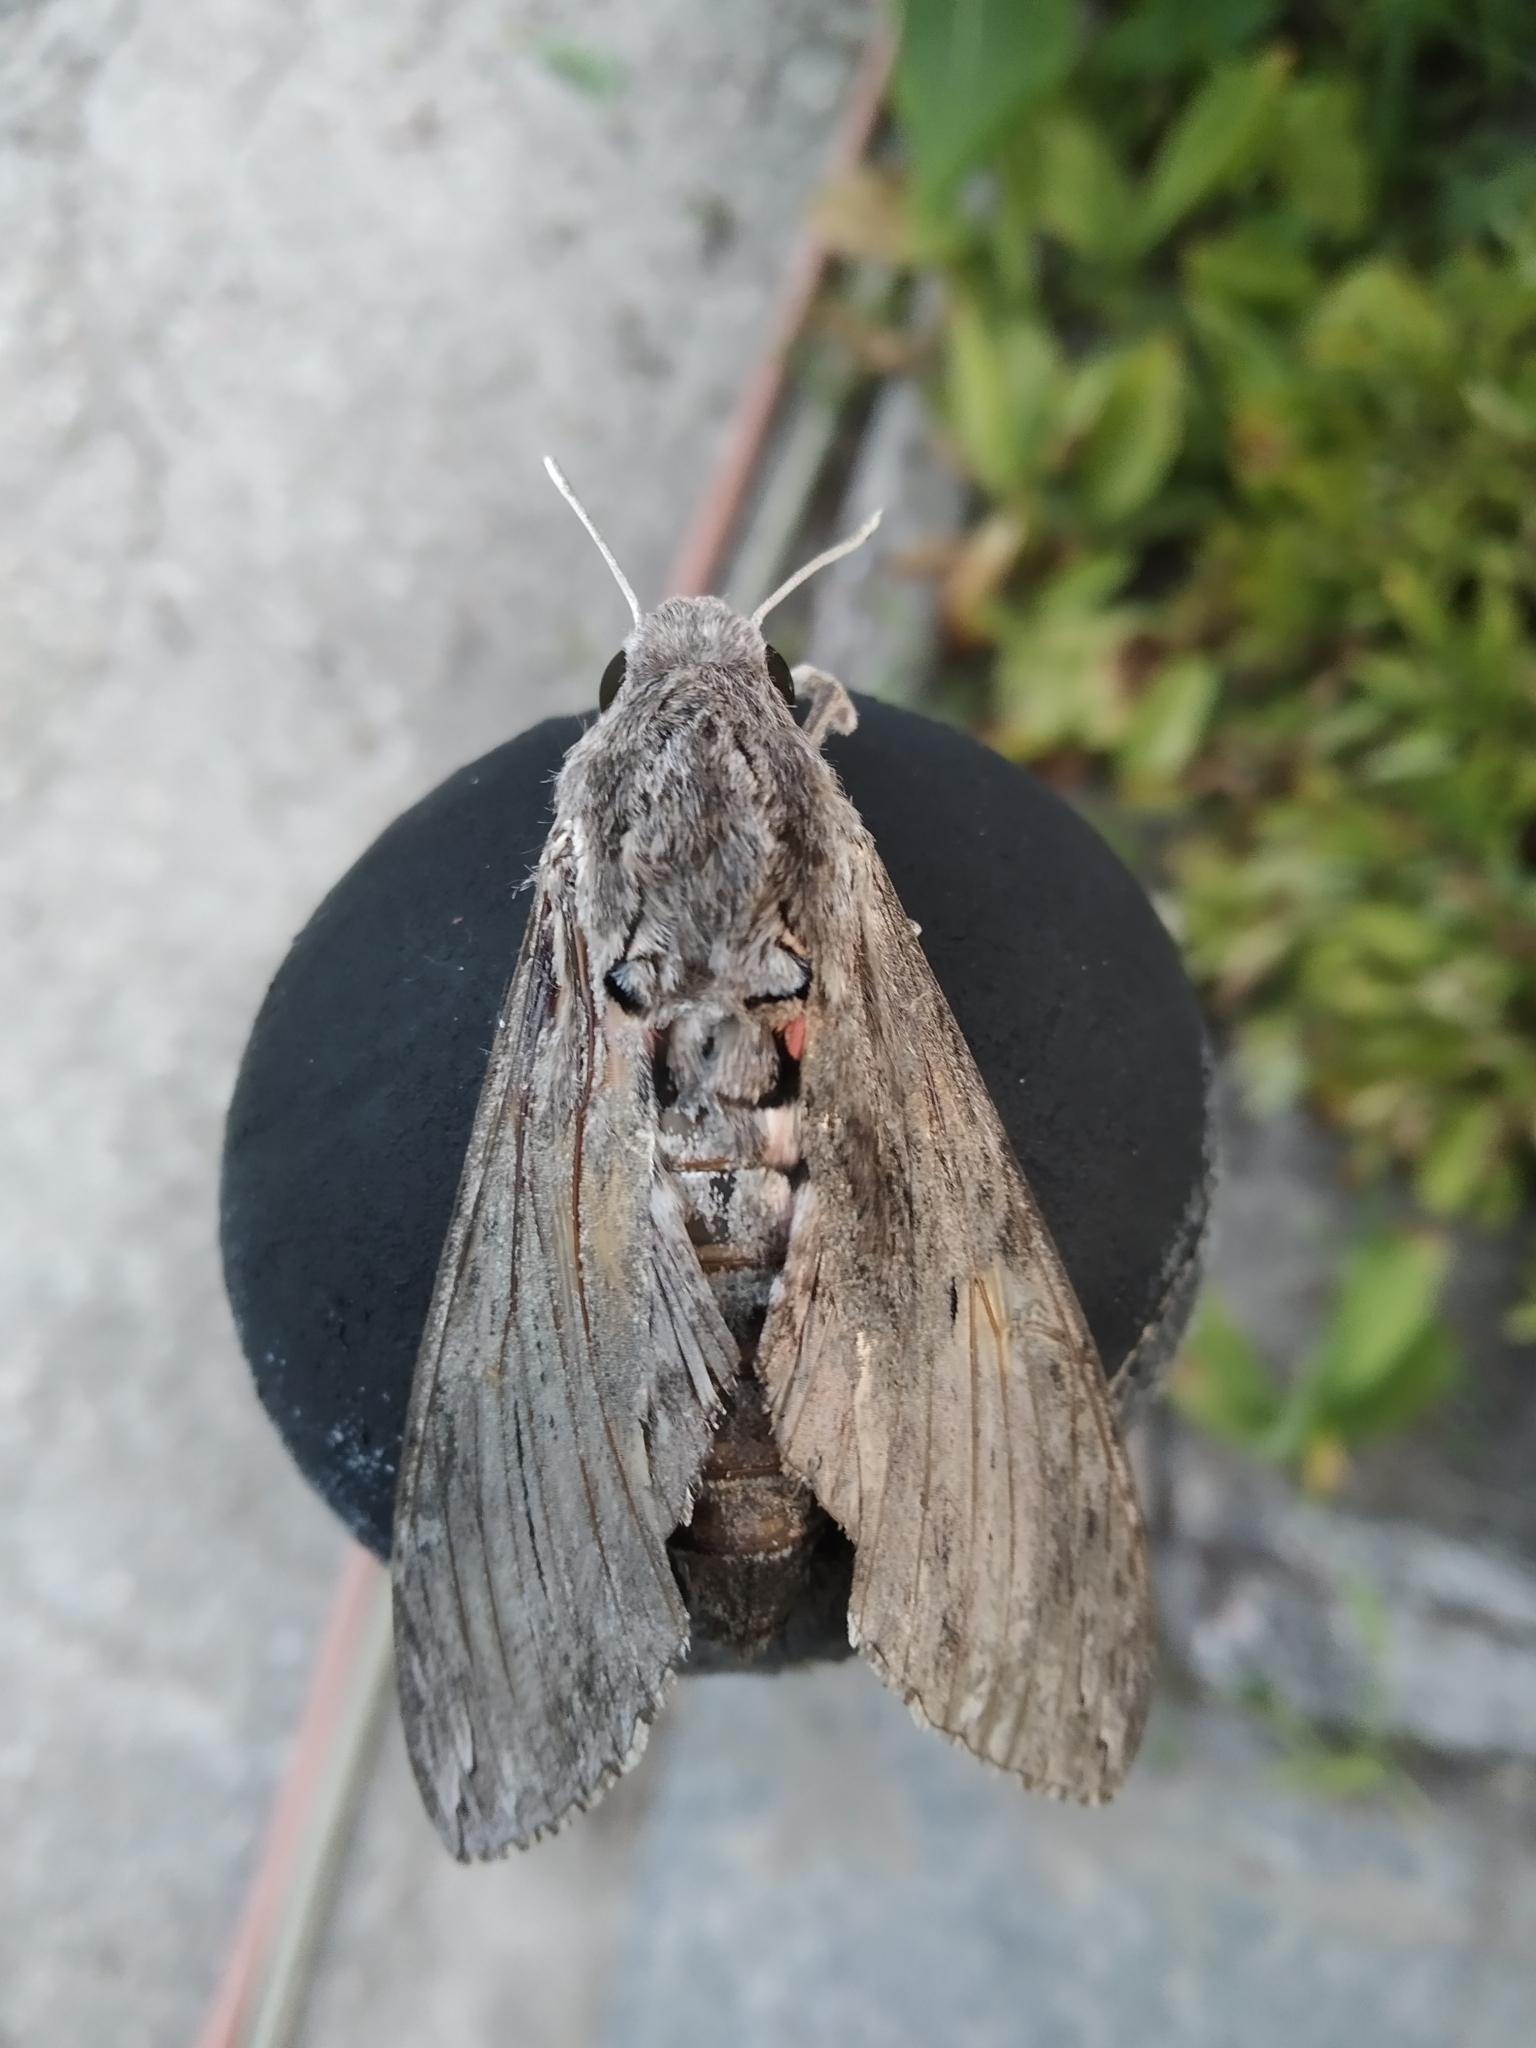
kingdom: Animalia
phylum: Arthropoda
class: Insecta
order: Lepidoptera
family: Sphingidae
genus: Agrius
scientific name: Agrius convolvuli
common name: Convolvulus hawkmoth
